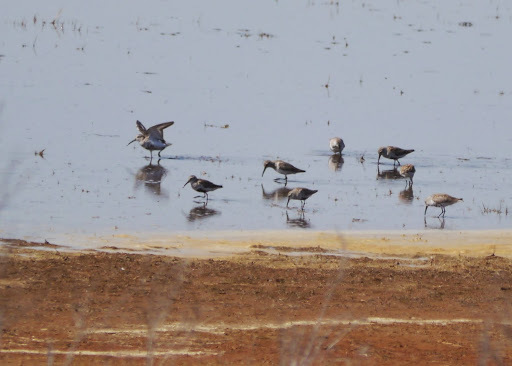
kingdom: Animalia
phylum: Chordata
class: Aves
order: Charadriiformes
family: Scolopacidae
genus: Calidris
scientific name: Calidris alpina
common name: Dunlin
